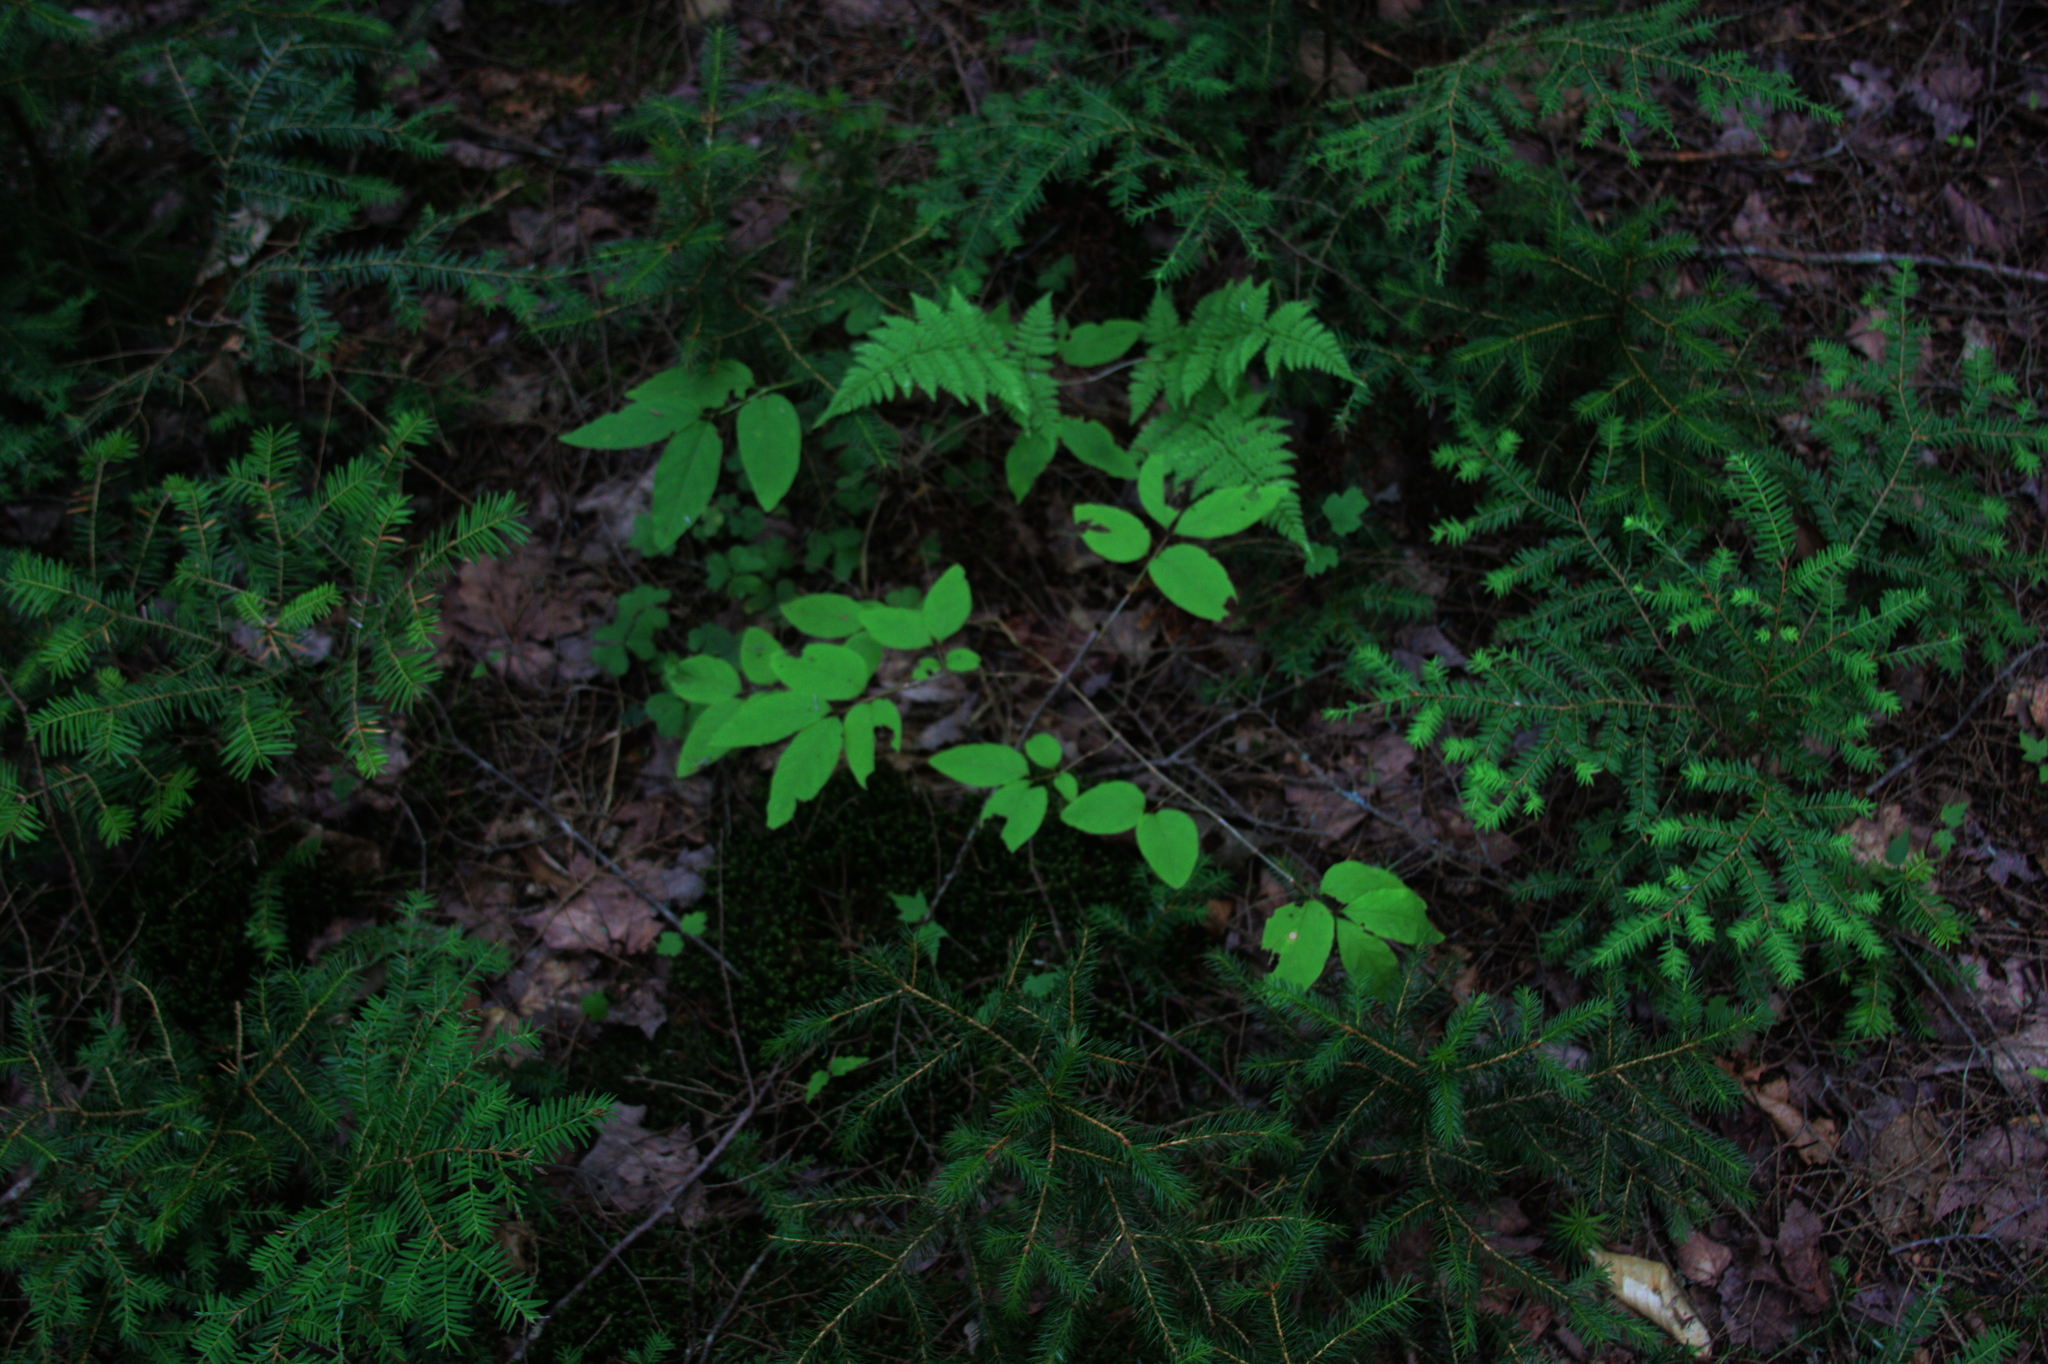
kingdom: Plantae
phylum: Tracheophyta
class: Magnoliopsida
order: Dipsacales
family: Caprifoliaceae
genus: Lonicera
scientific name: Lonicera canadensis
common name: American fly-honeysuckle
